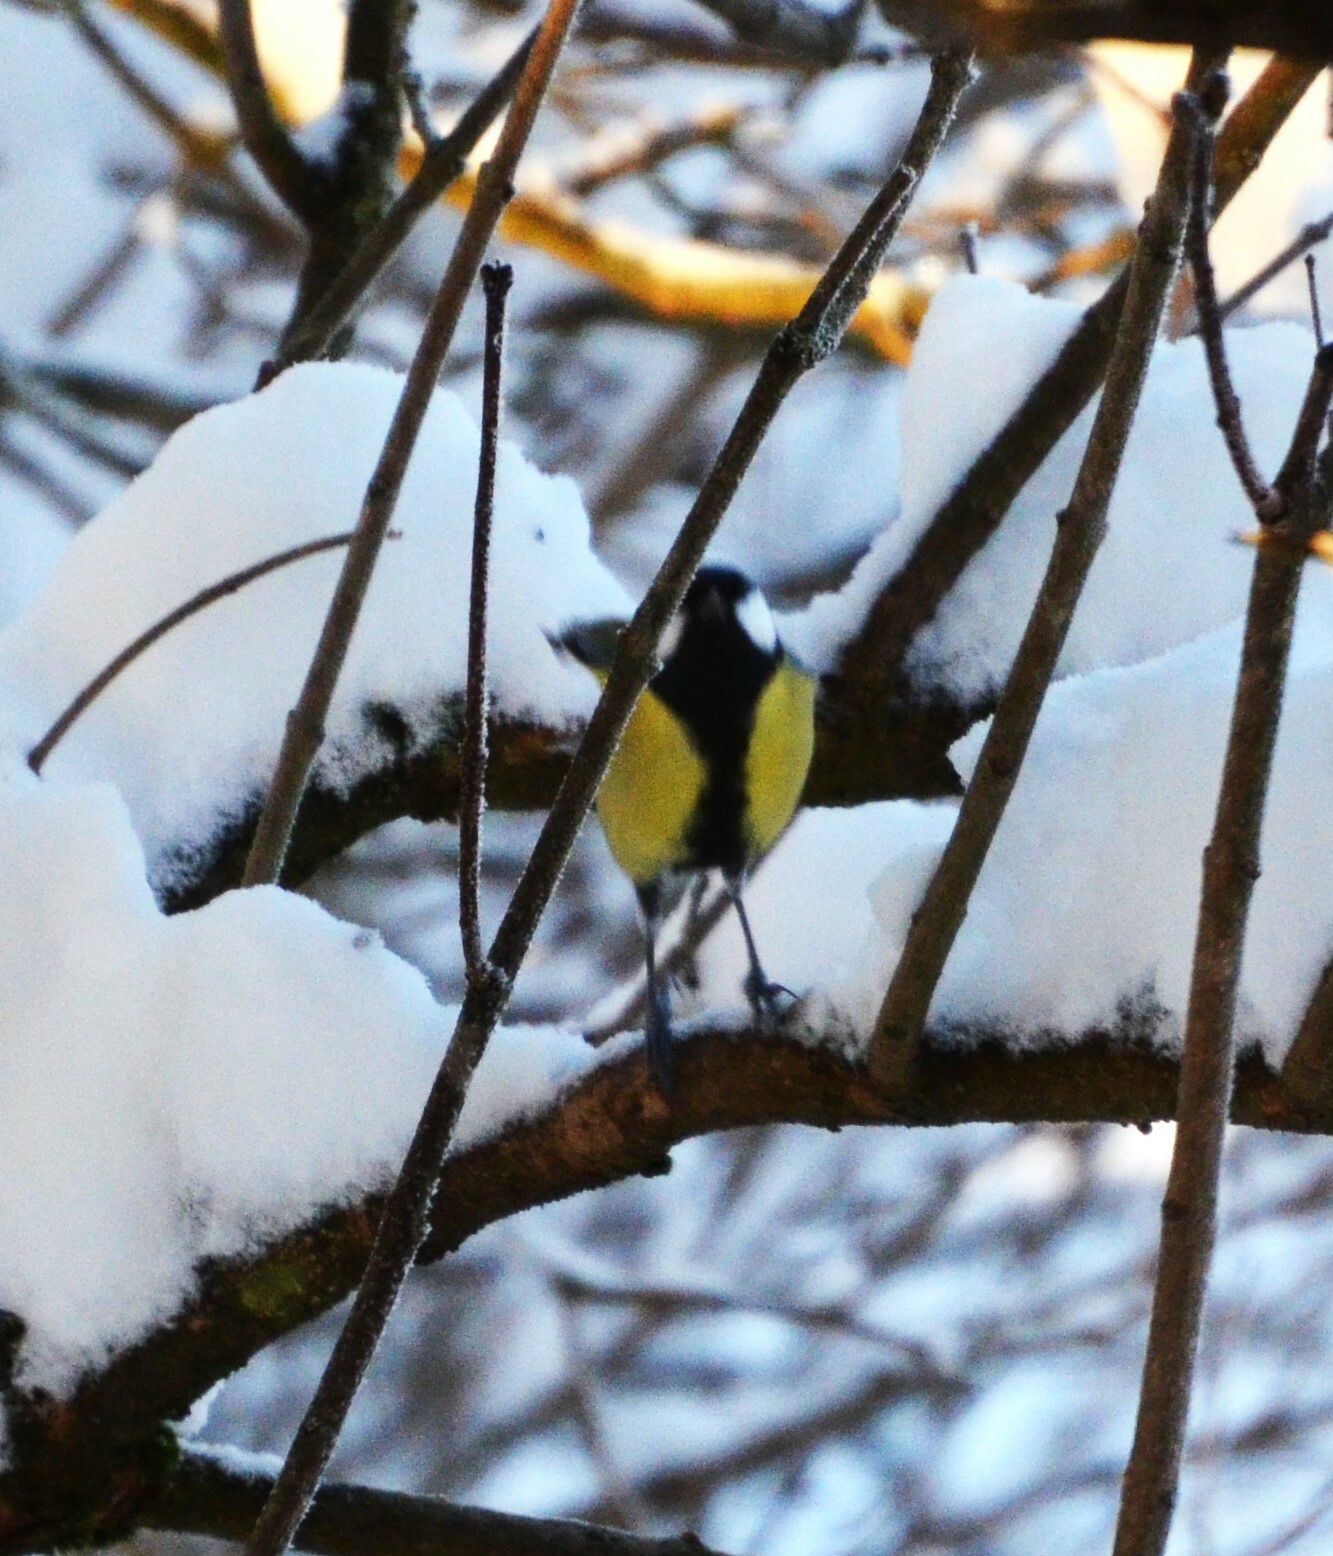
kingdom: Animalia
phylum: Chordata
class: Aves
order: Passeriformes
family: Paridae
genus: Parus
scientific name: Parus major
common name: Great tit
